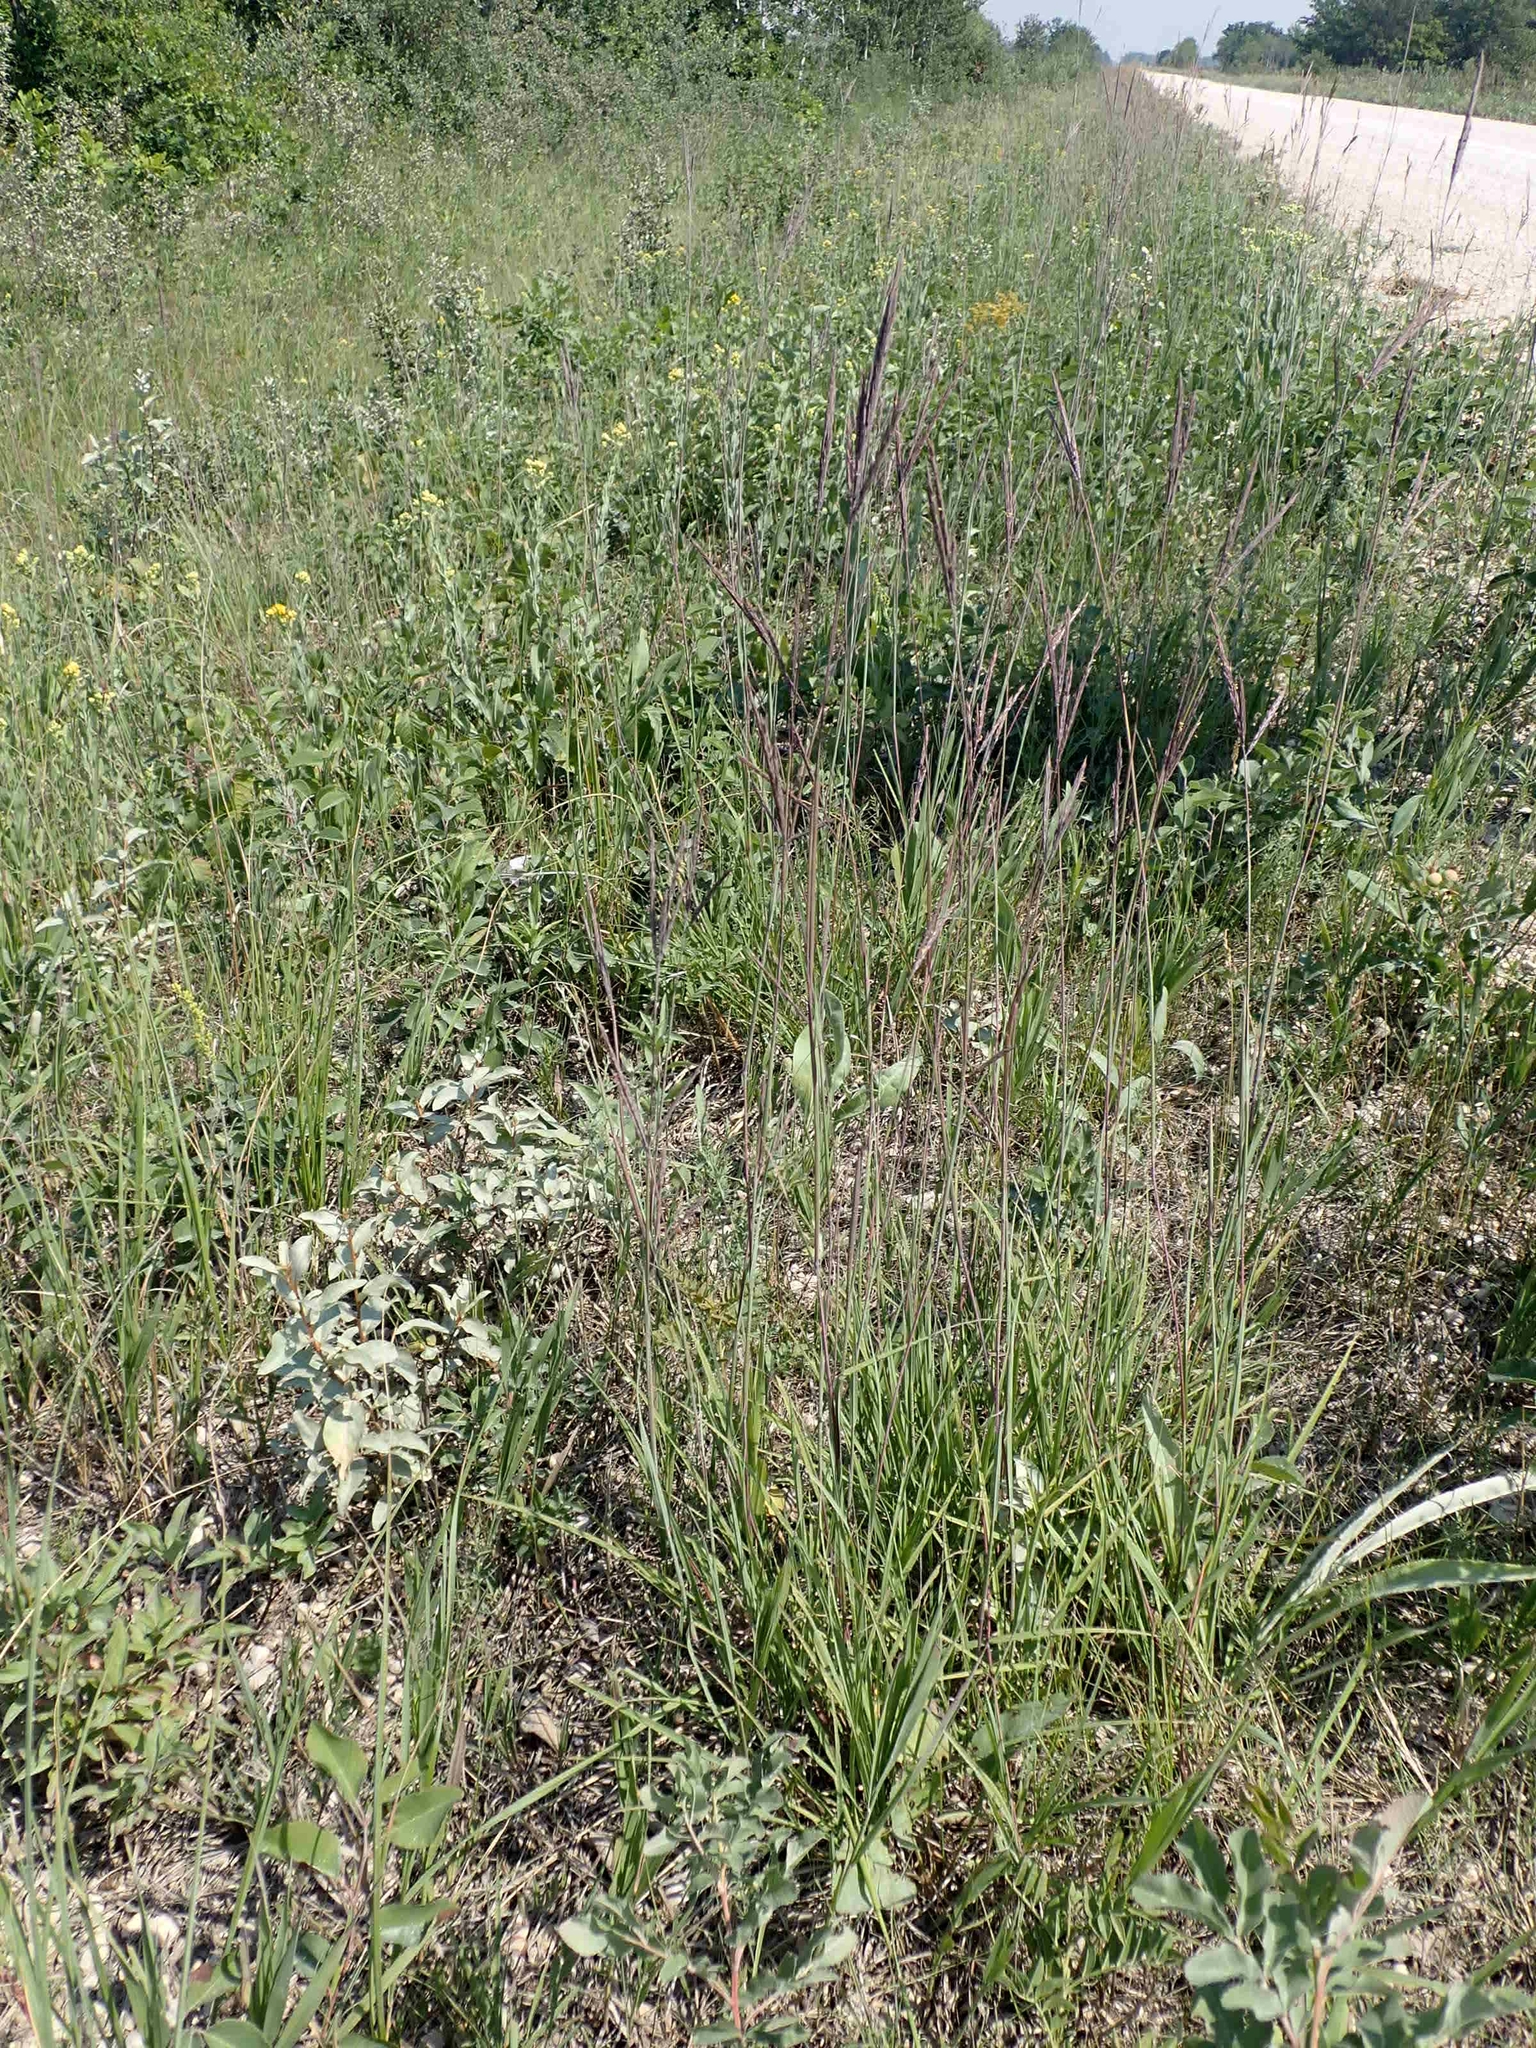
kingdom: Plantae
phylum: Tracheophyta
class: Liliopsida
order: Poales
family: Poaceae
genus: Andropogon
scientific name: Andropogon gerardi
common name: Big bluestem
